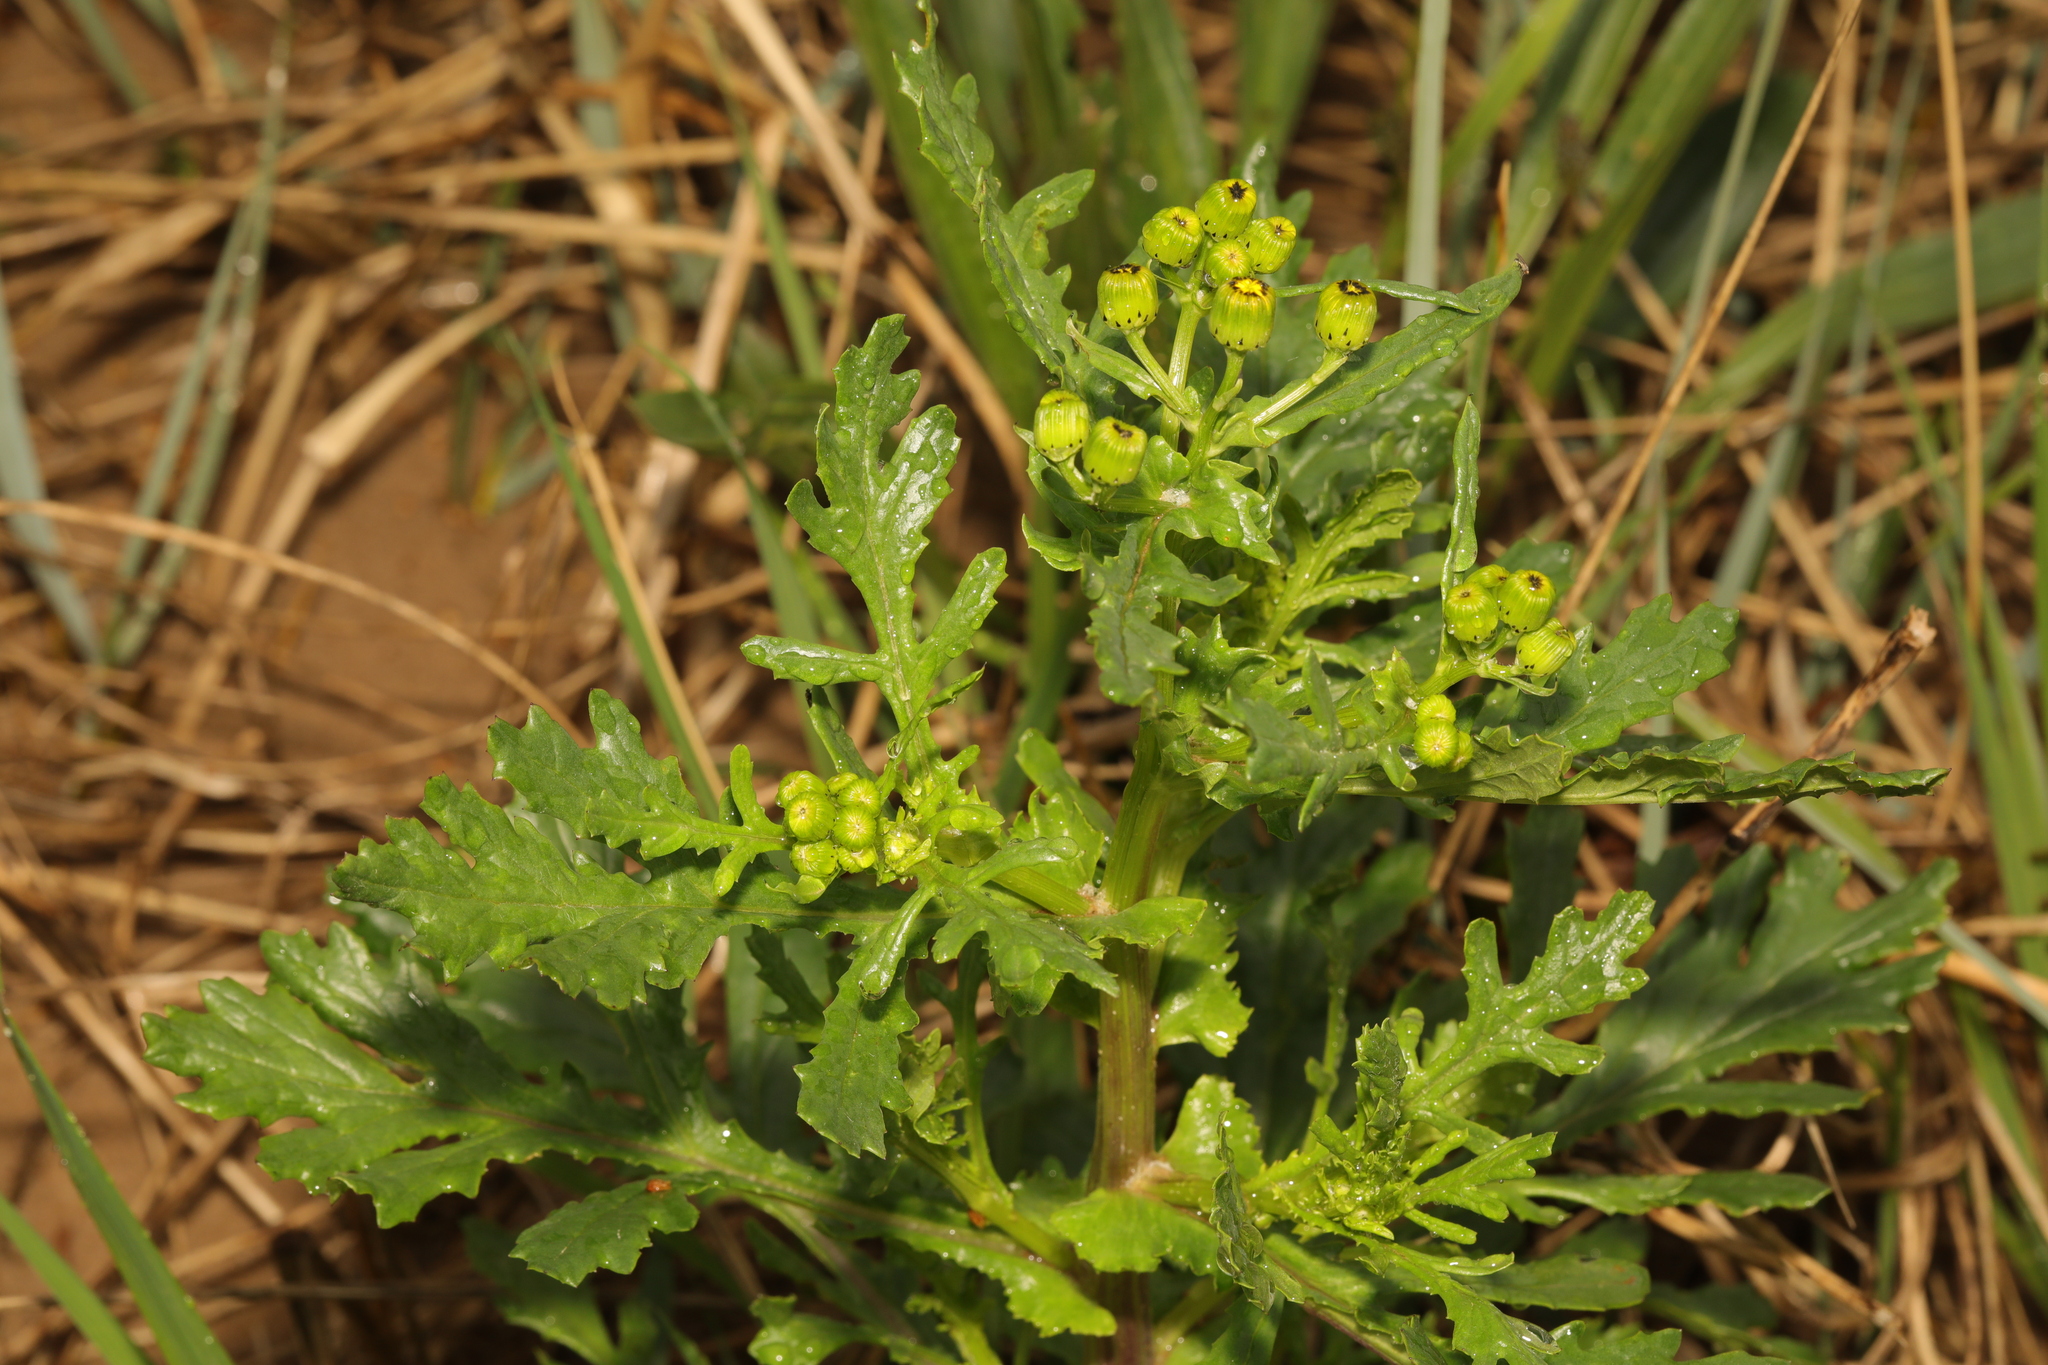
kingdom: Plantae
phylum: Tracheophyta
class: Magnoliopsida
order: Asterales
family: Asteraceae
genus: Senecio
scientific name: Senecio squalidus
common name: Oxford ragwort
